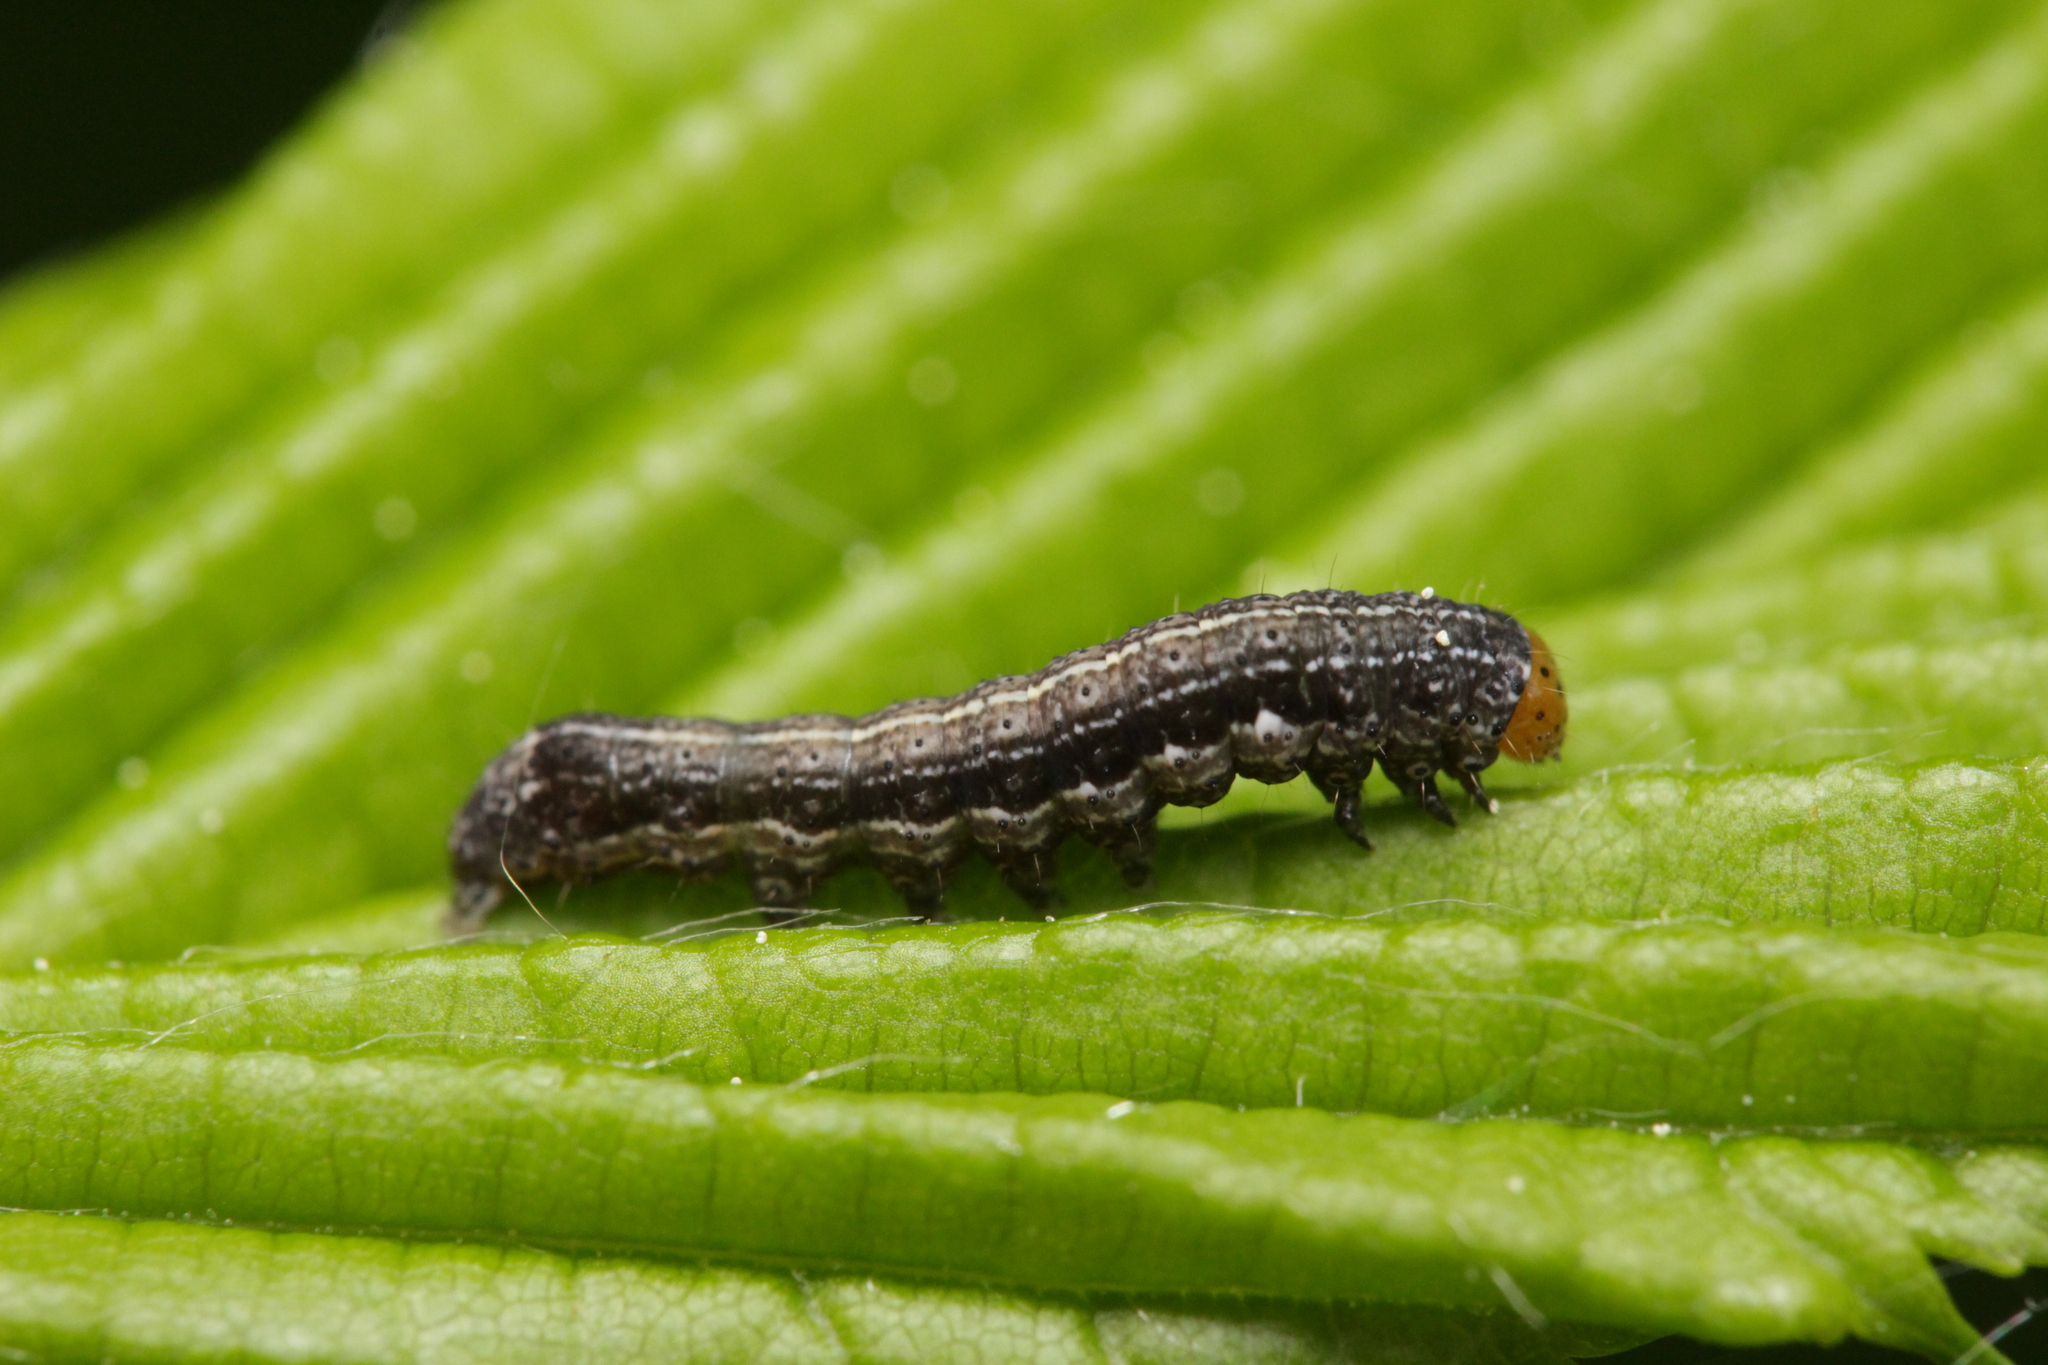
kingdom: Animalia
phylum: Arthropoda
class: Insecta
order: Lepidoptera
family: Noctuidae
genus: Anorthoa
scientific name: Anorthoa munda
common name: Twin-spotted quaker
